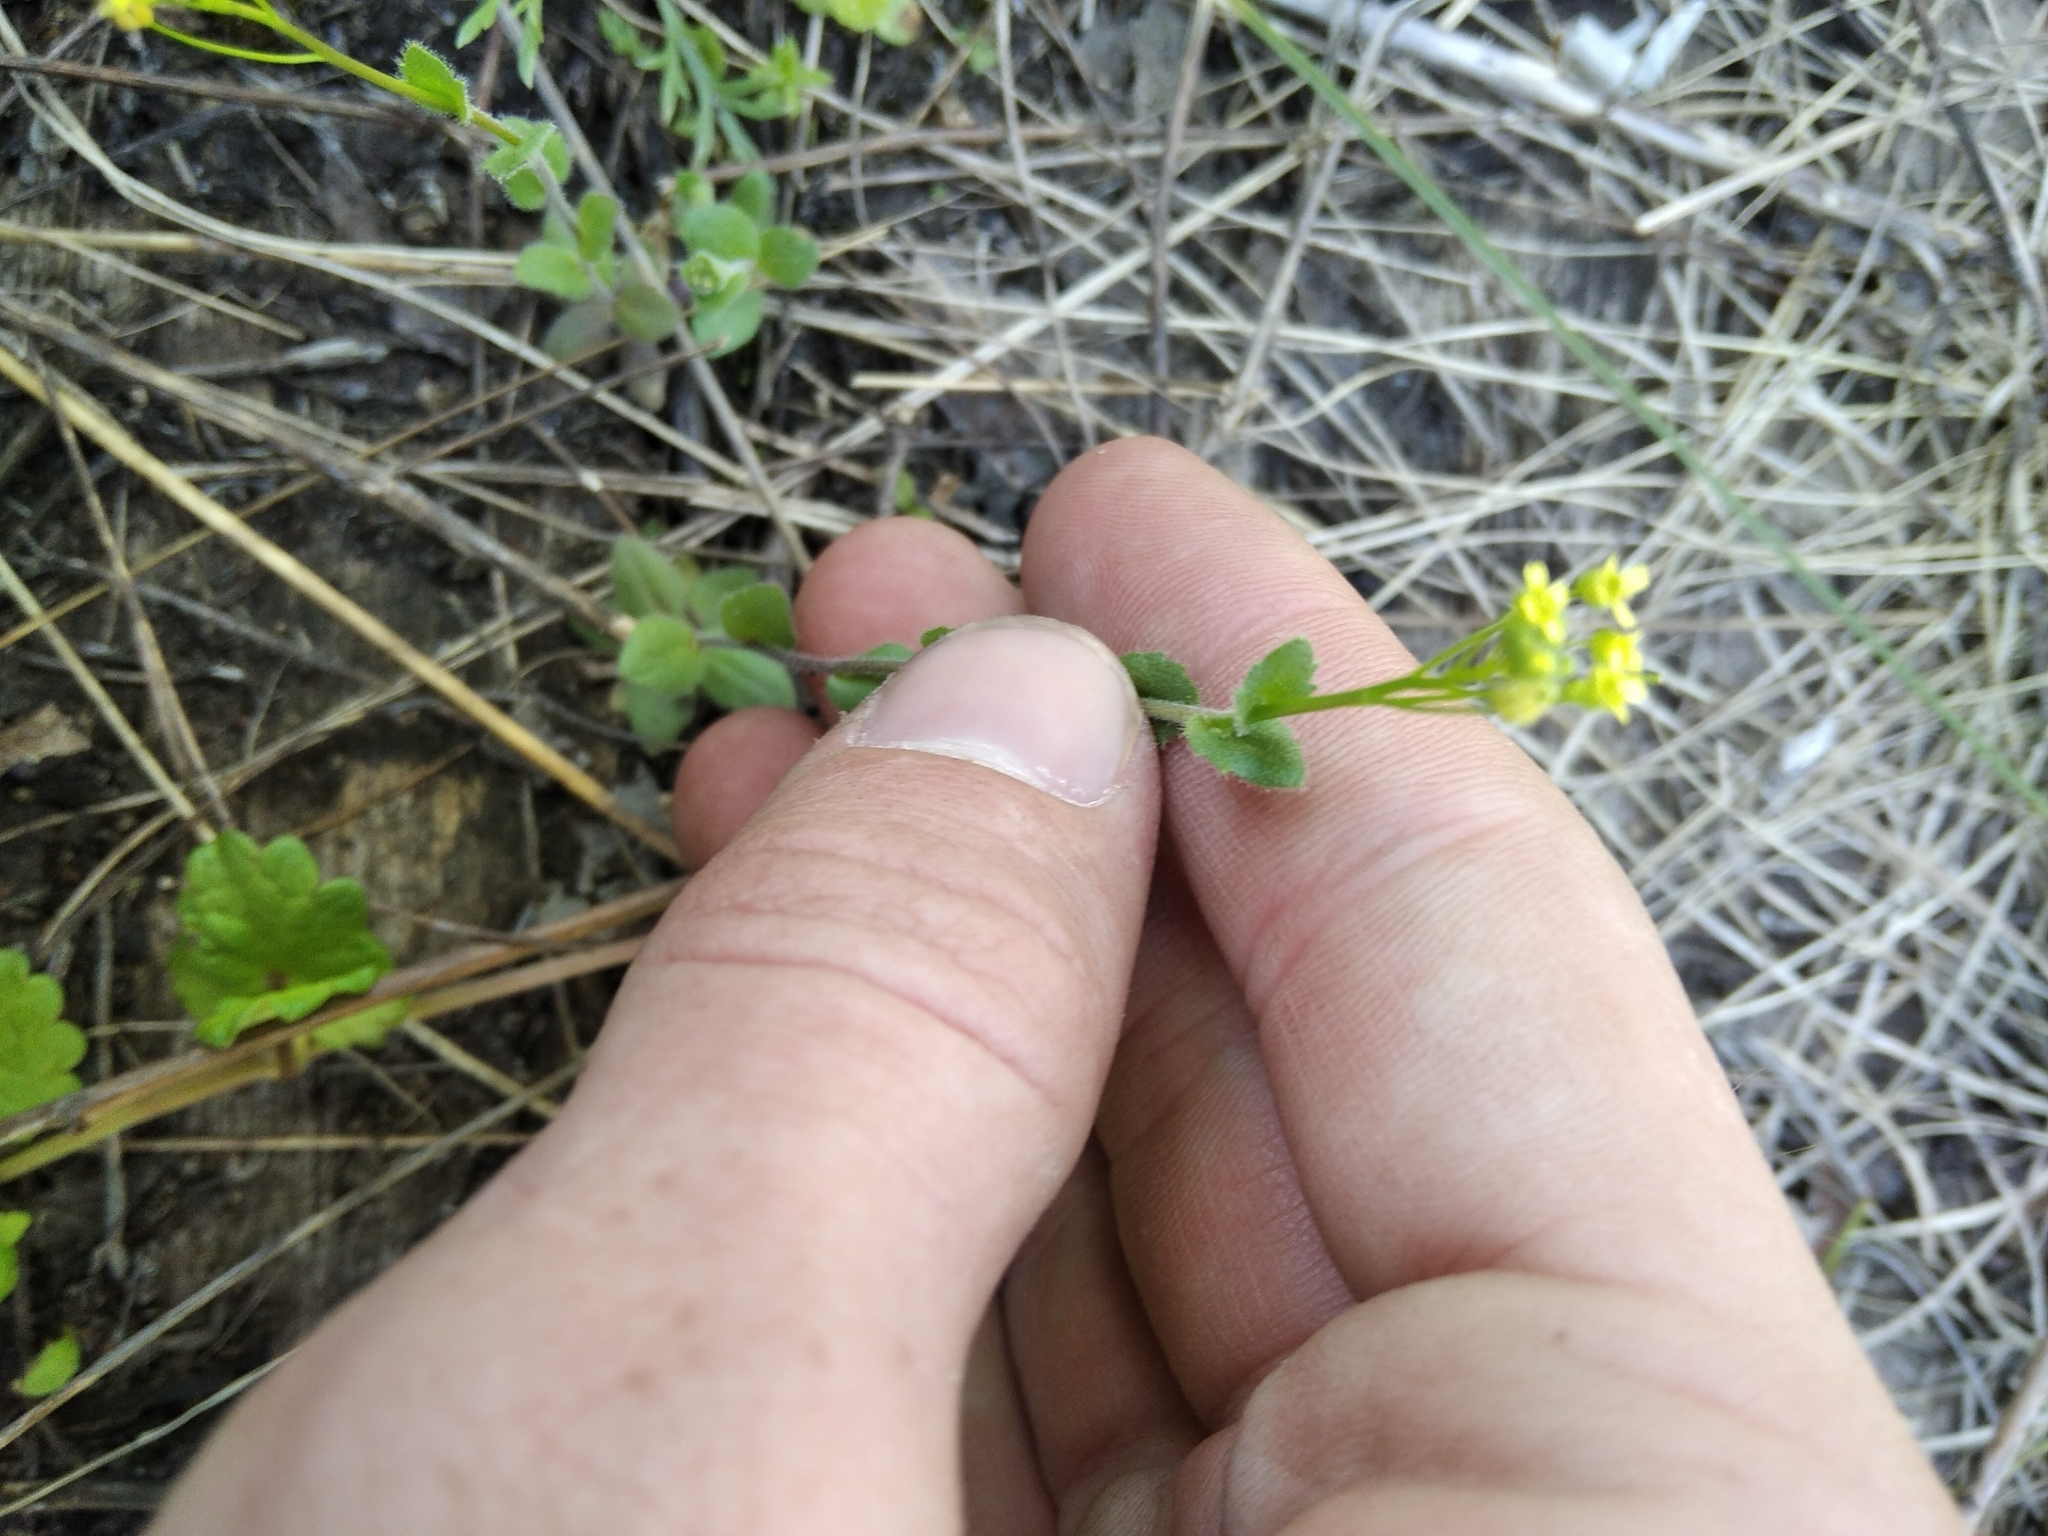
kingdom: Plantae
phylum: Tracheophyta
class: Magnoliopsida
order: Brassicales
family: Brassicaceae
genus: Draba
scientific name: Draba nemorosa
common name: Wood whitlow-grass
